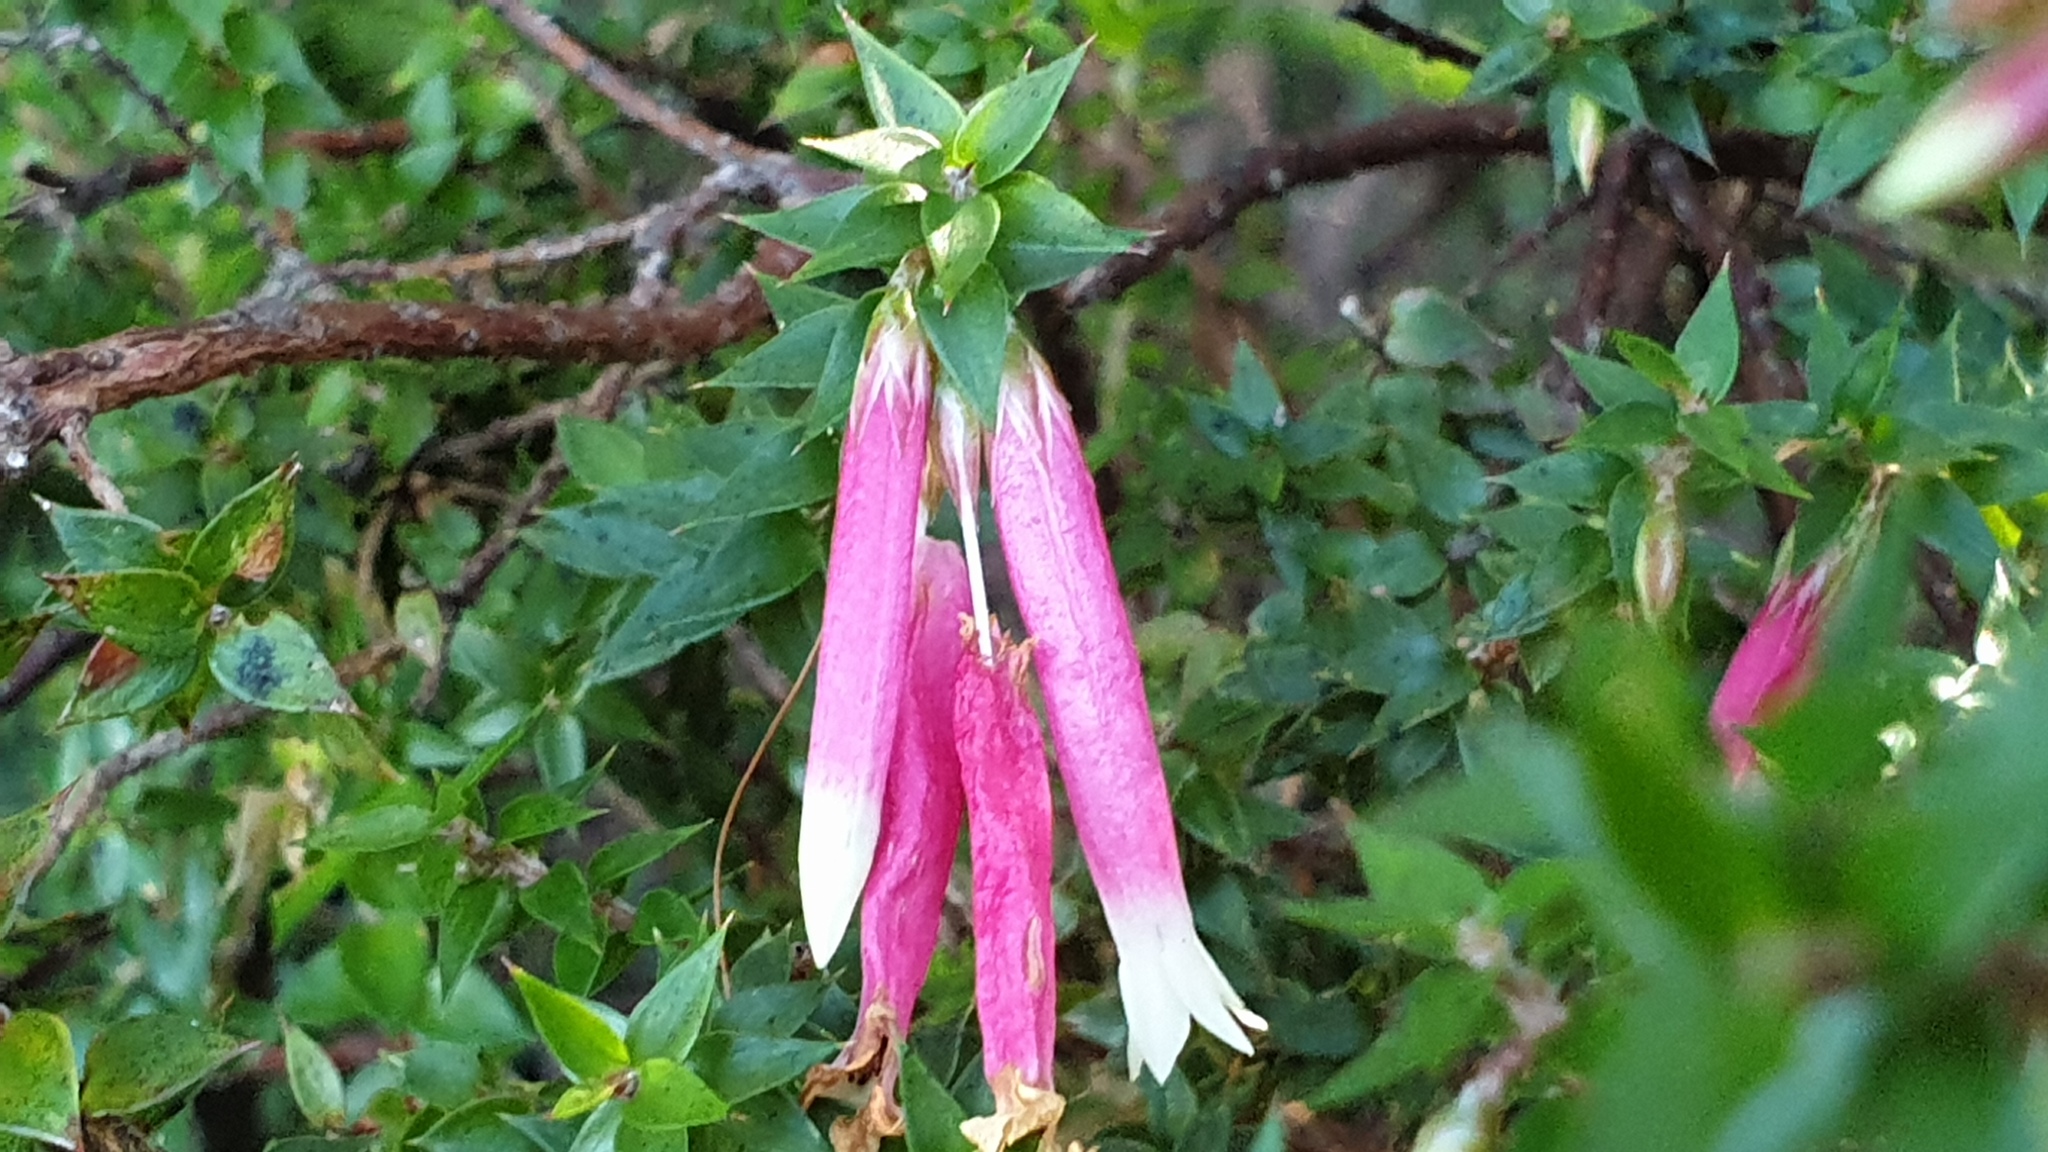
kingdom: Plantae
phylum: Tracheophyta
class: Magnoliopsida
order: Ericales
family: Ericaceae
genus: Epacris
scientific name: Epacris longiflora
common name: Fuchsia-heath
